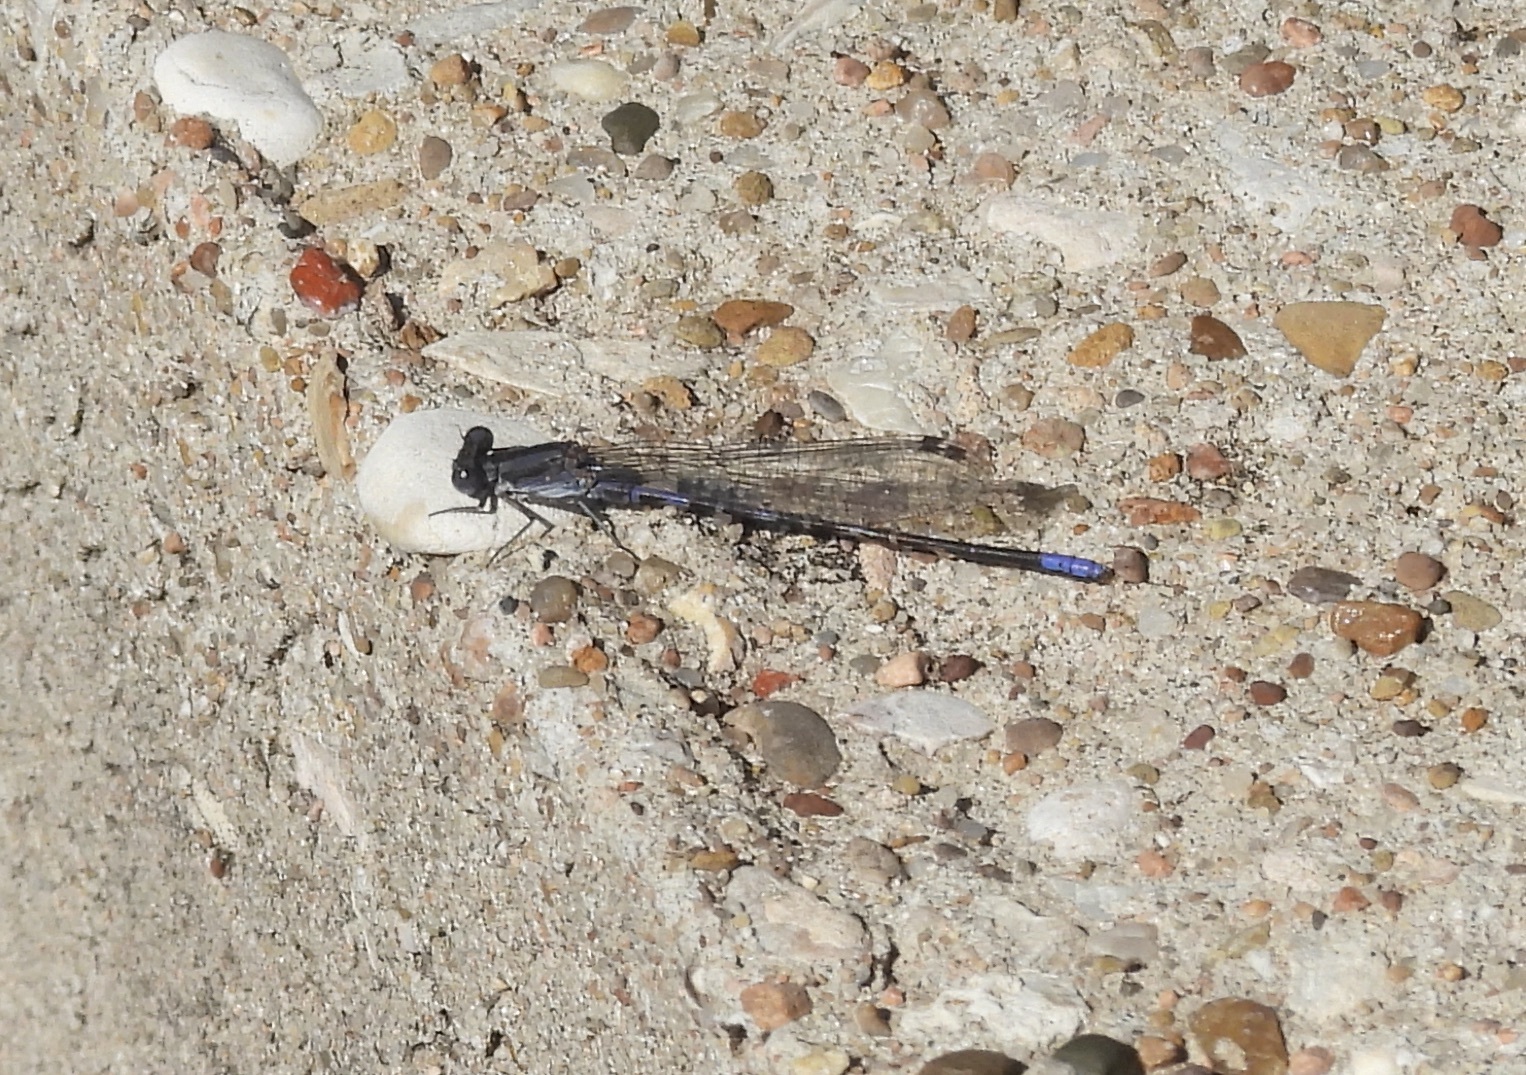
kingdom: Animalia
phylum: Arthropoda
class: Insecta
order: Odonata
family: Coenagrionidae
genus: Argia
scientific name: Argia immunda
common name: Kiowa dancer
